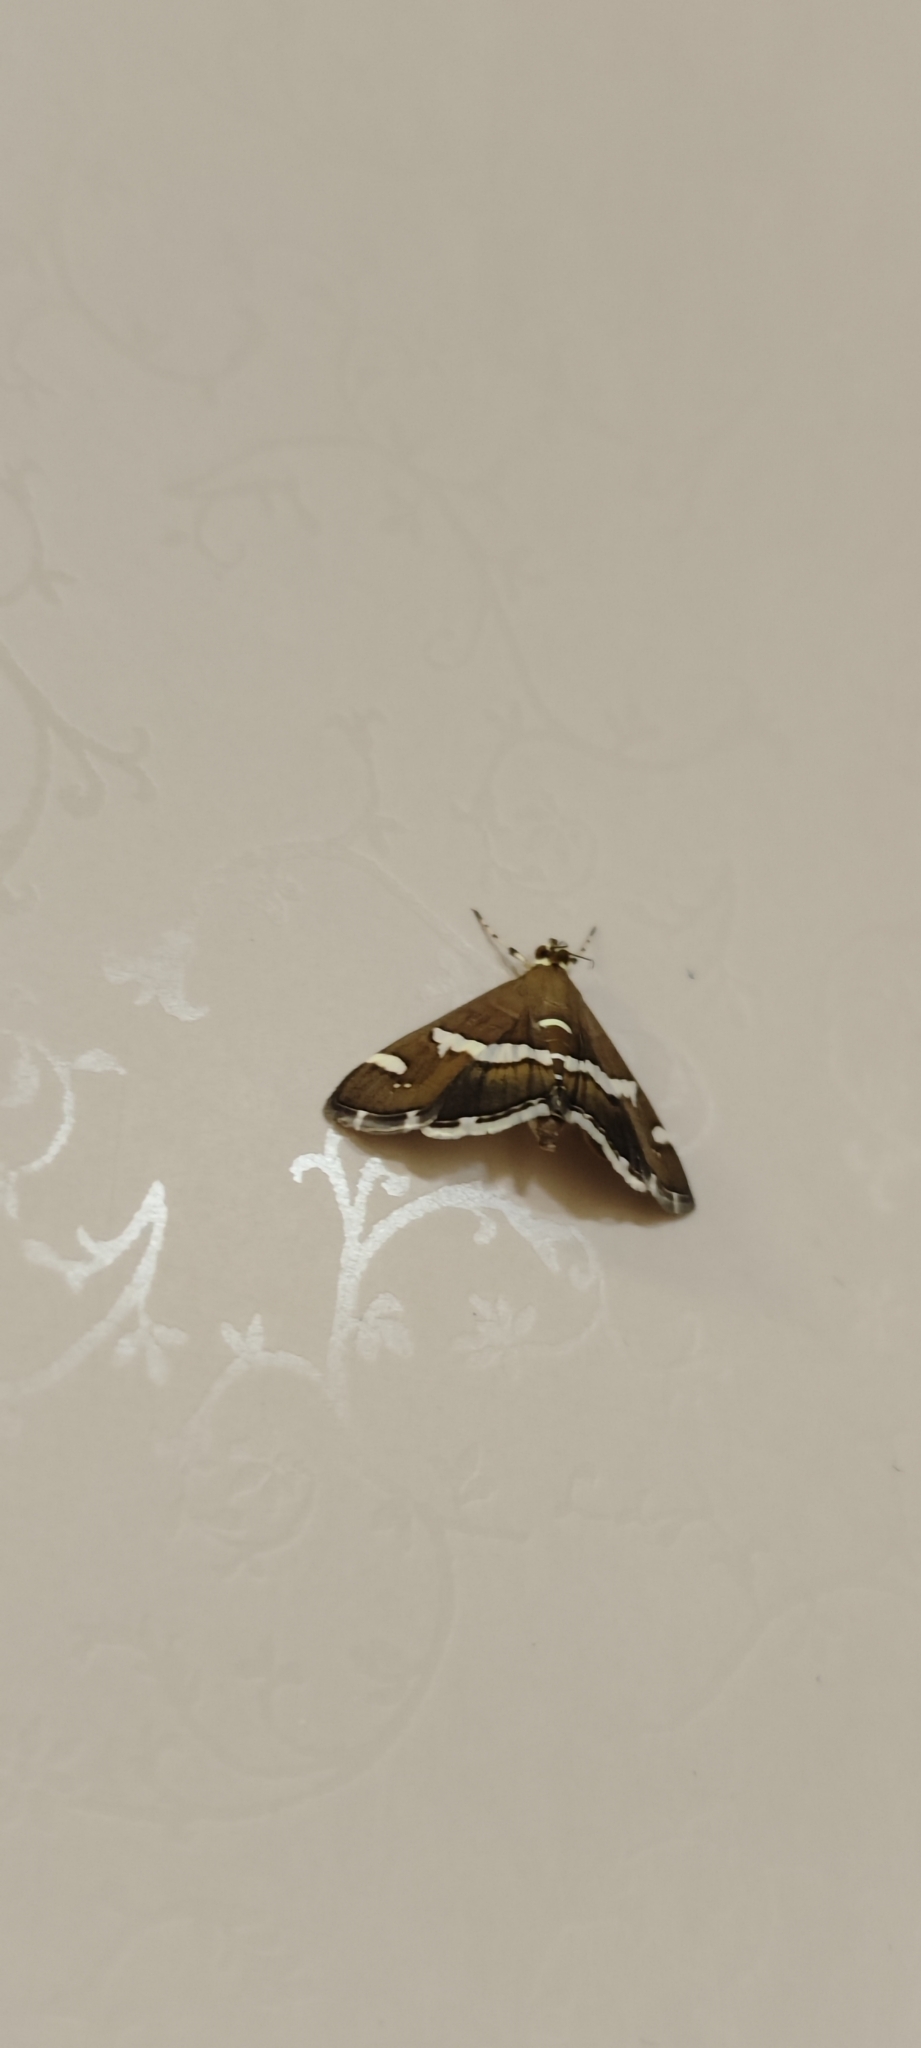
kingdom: Animalia
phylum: Arthropoda
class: Insecta
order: Lepidoptera
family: Crambidae
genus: Spoladea
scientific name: Spoladea recurvalis
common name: Beet webworm moth
